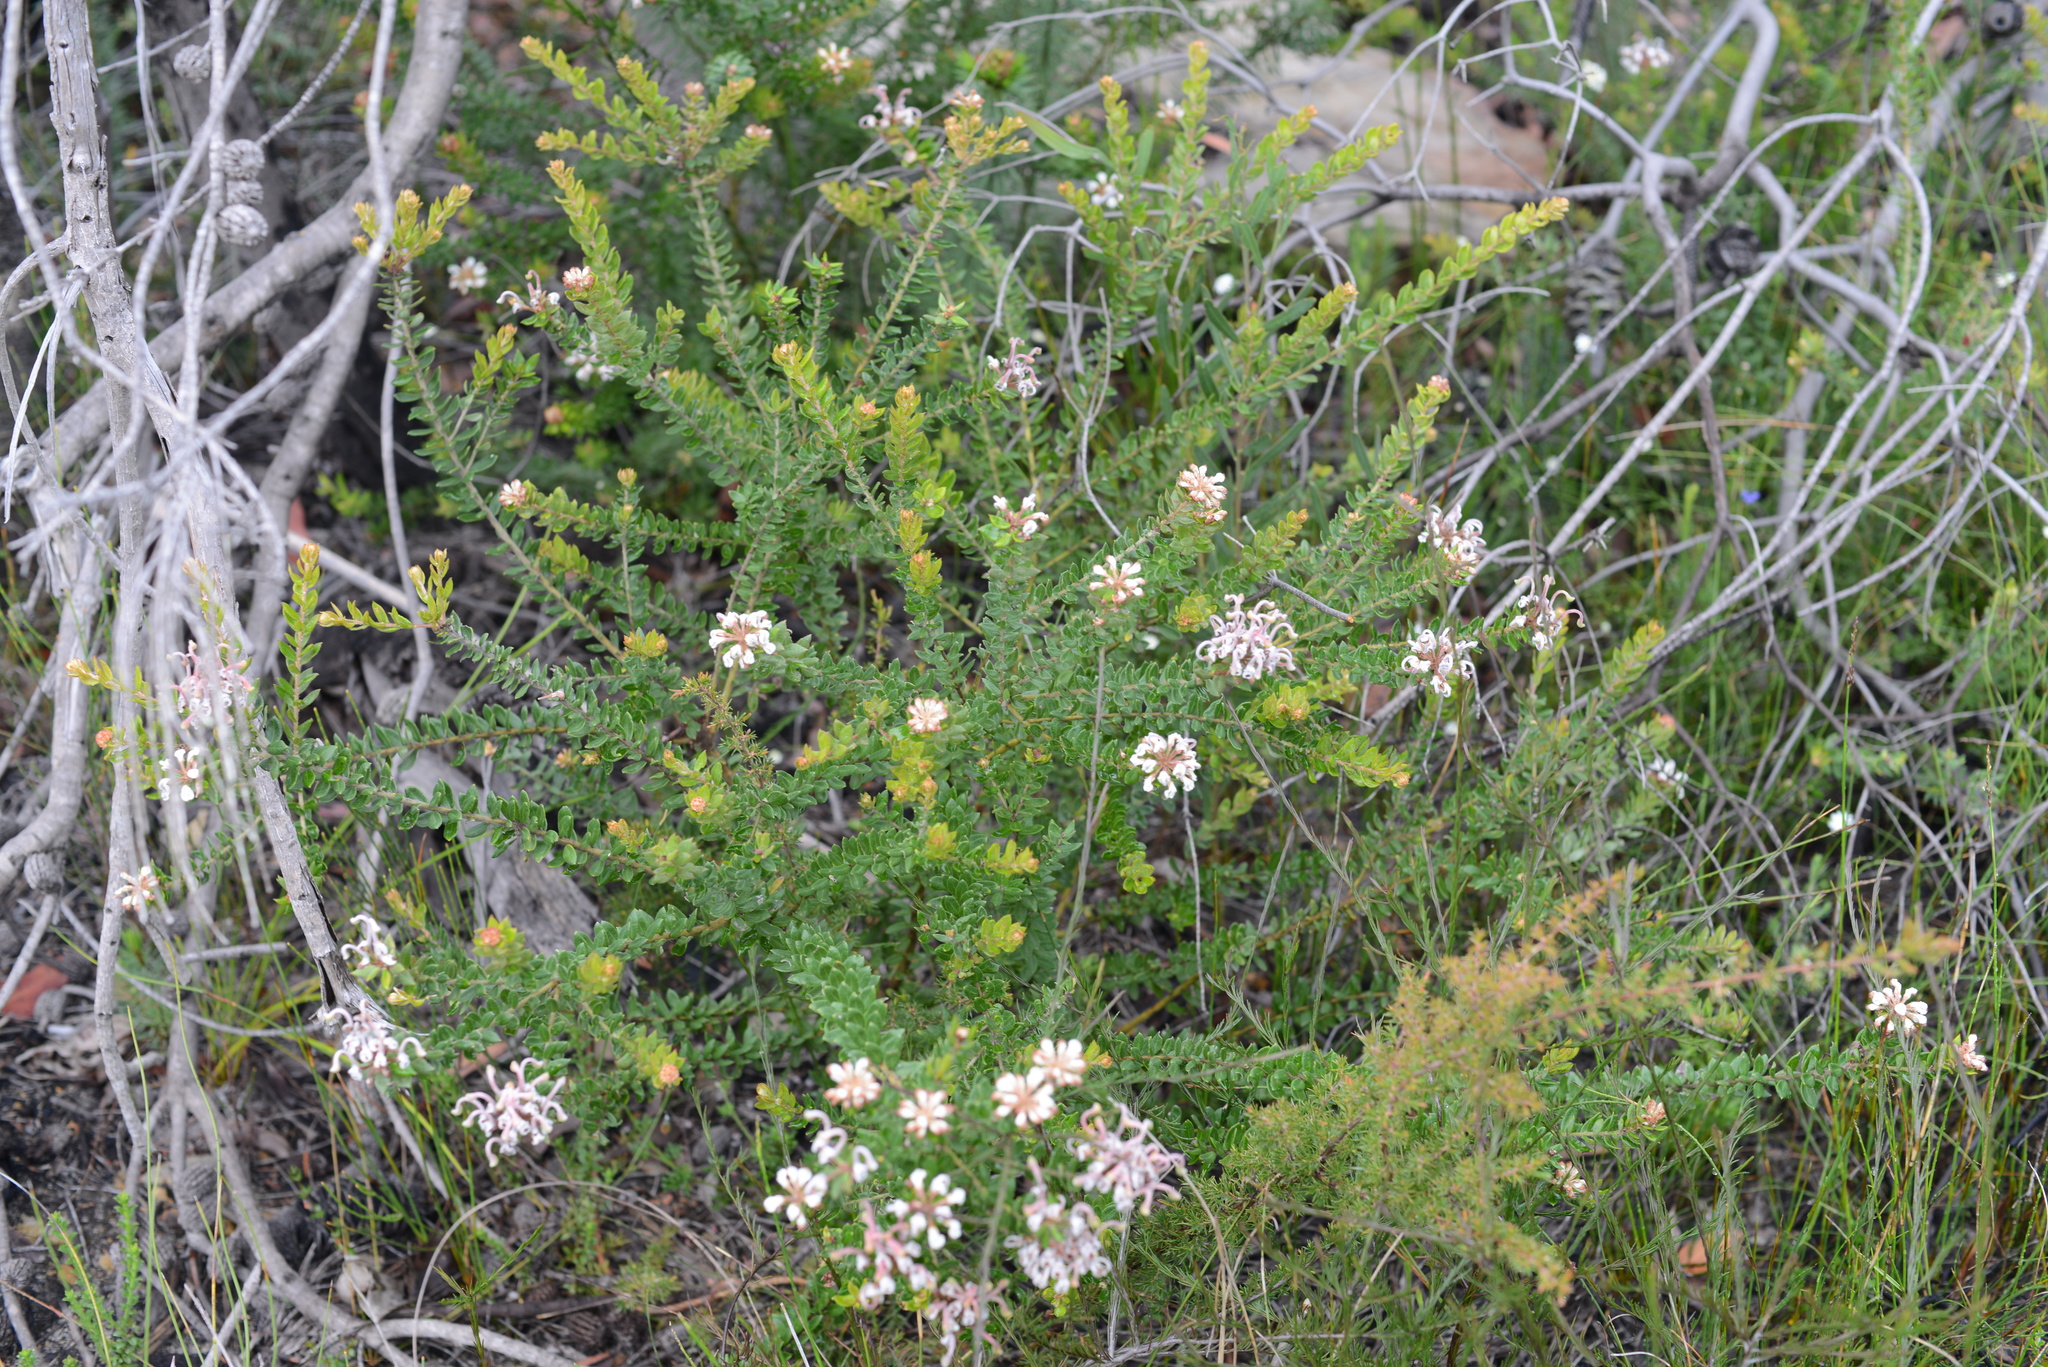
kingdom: Plantae
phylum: Tracheophyta
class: Magnoliopsida
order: Proteales
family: Proteaceae
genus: Grevillea
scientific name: Grevillea buxifolia
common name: Grey spiderflower
